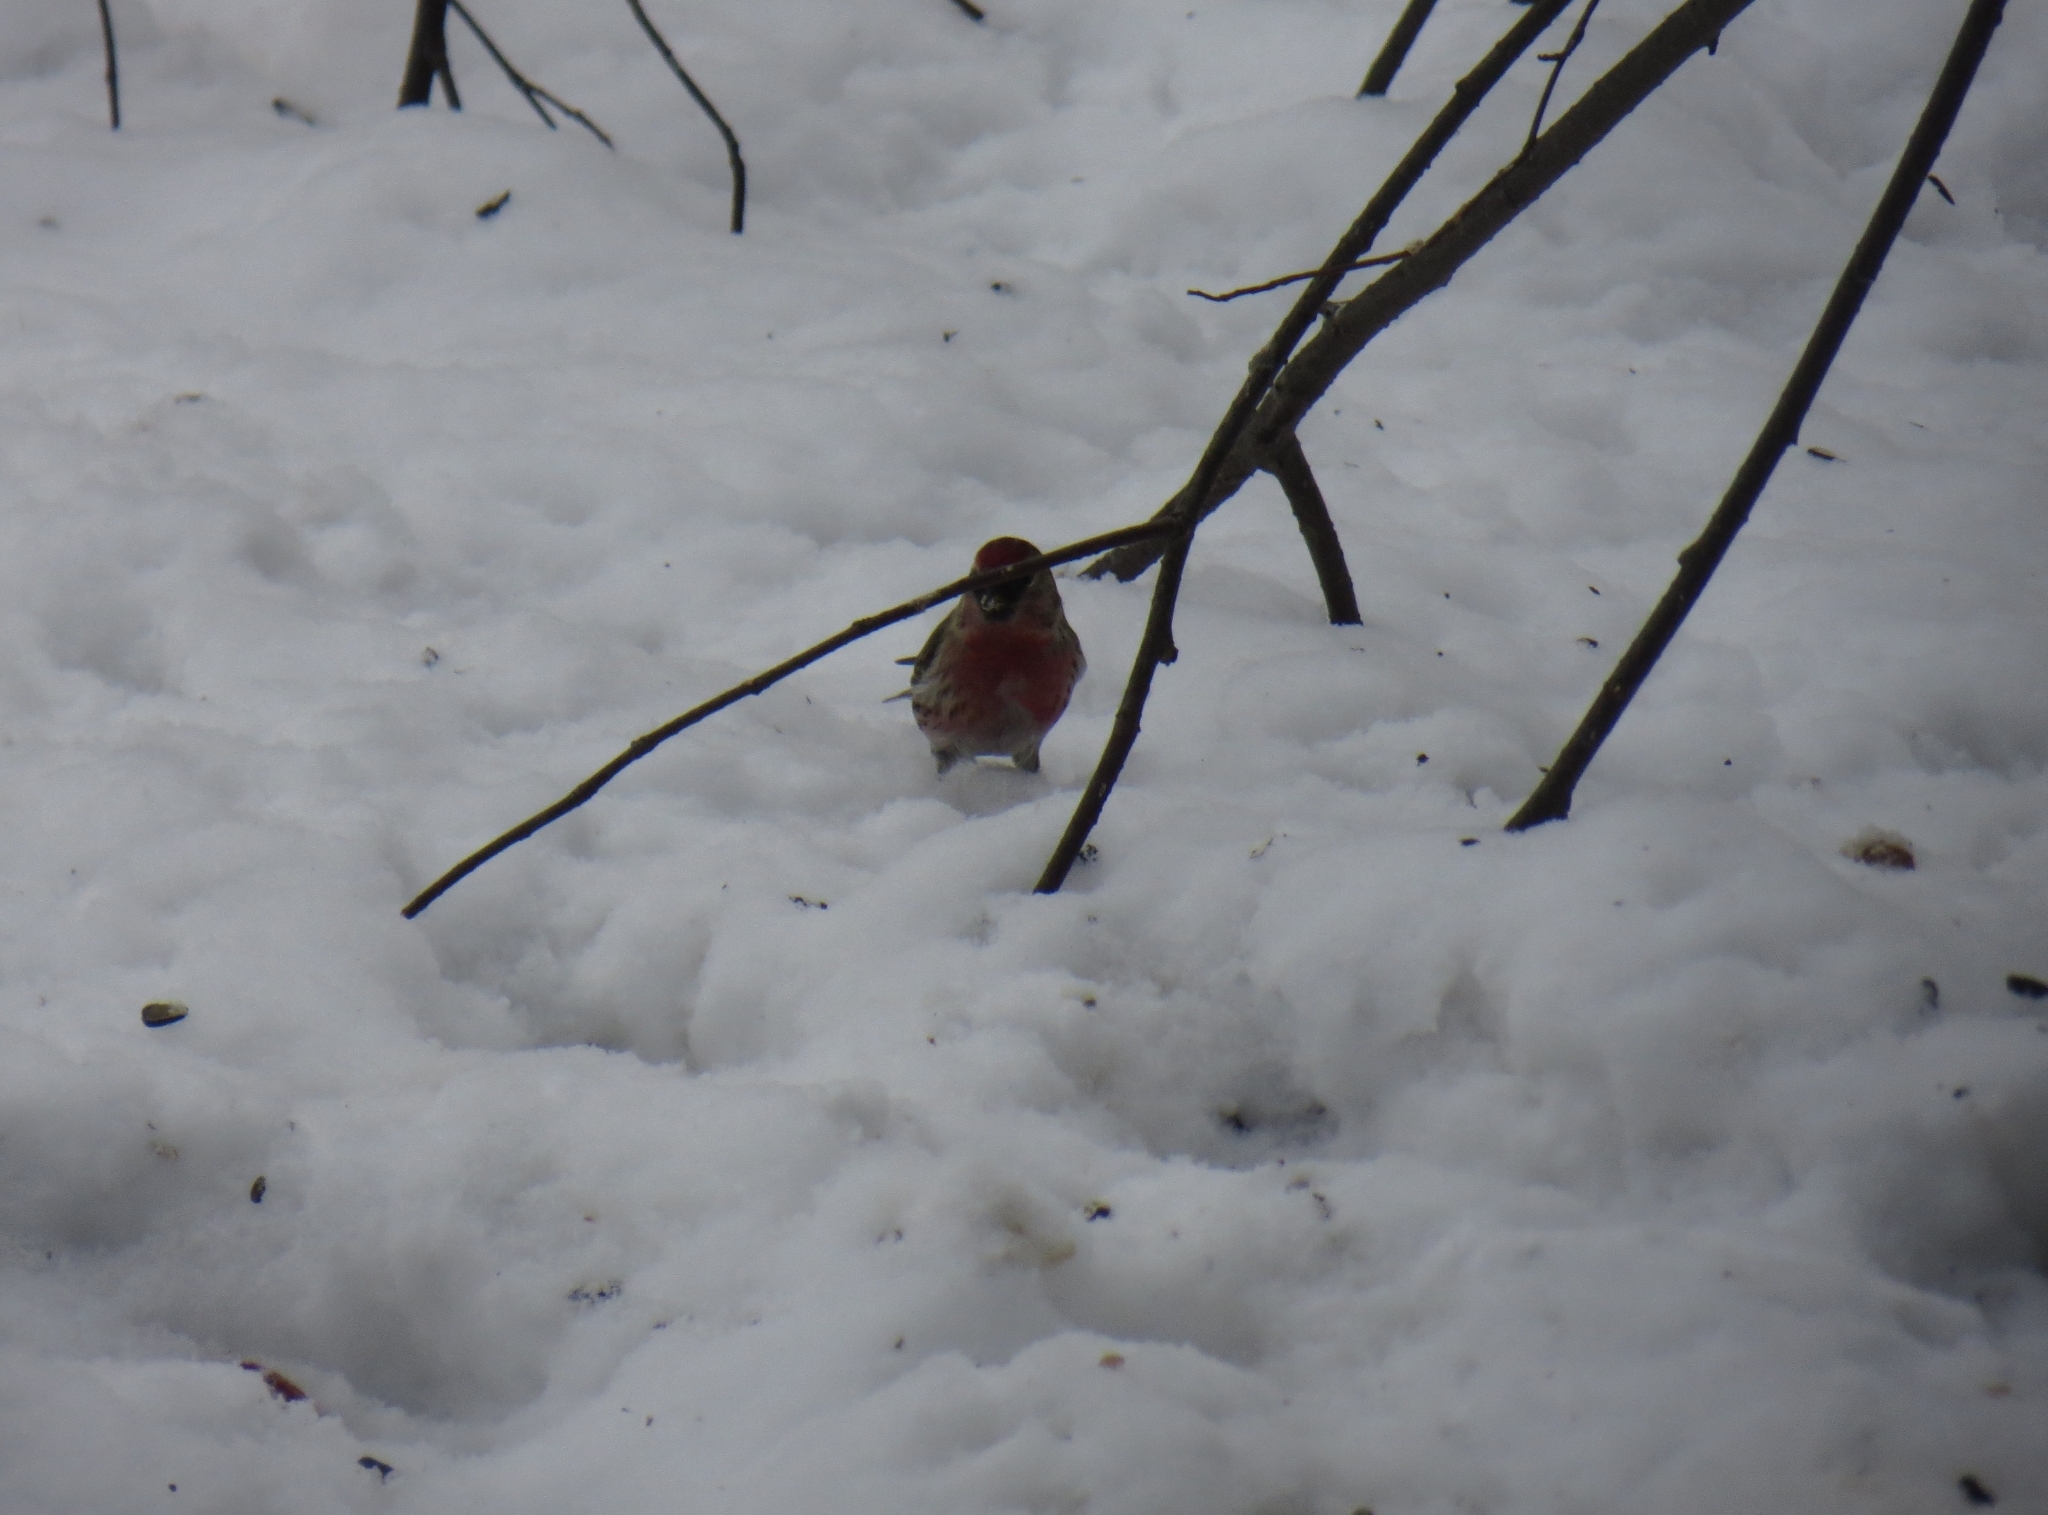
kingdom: Animalia
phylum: Chordata
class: Aves
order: Passeriformes
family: Fringillidae
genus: Acanthis
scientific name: Acanthis flammea
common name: Common redpoll
